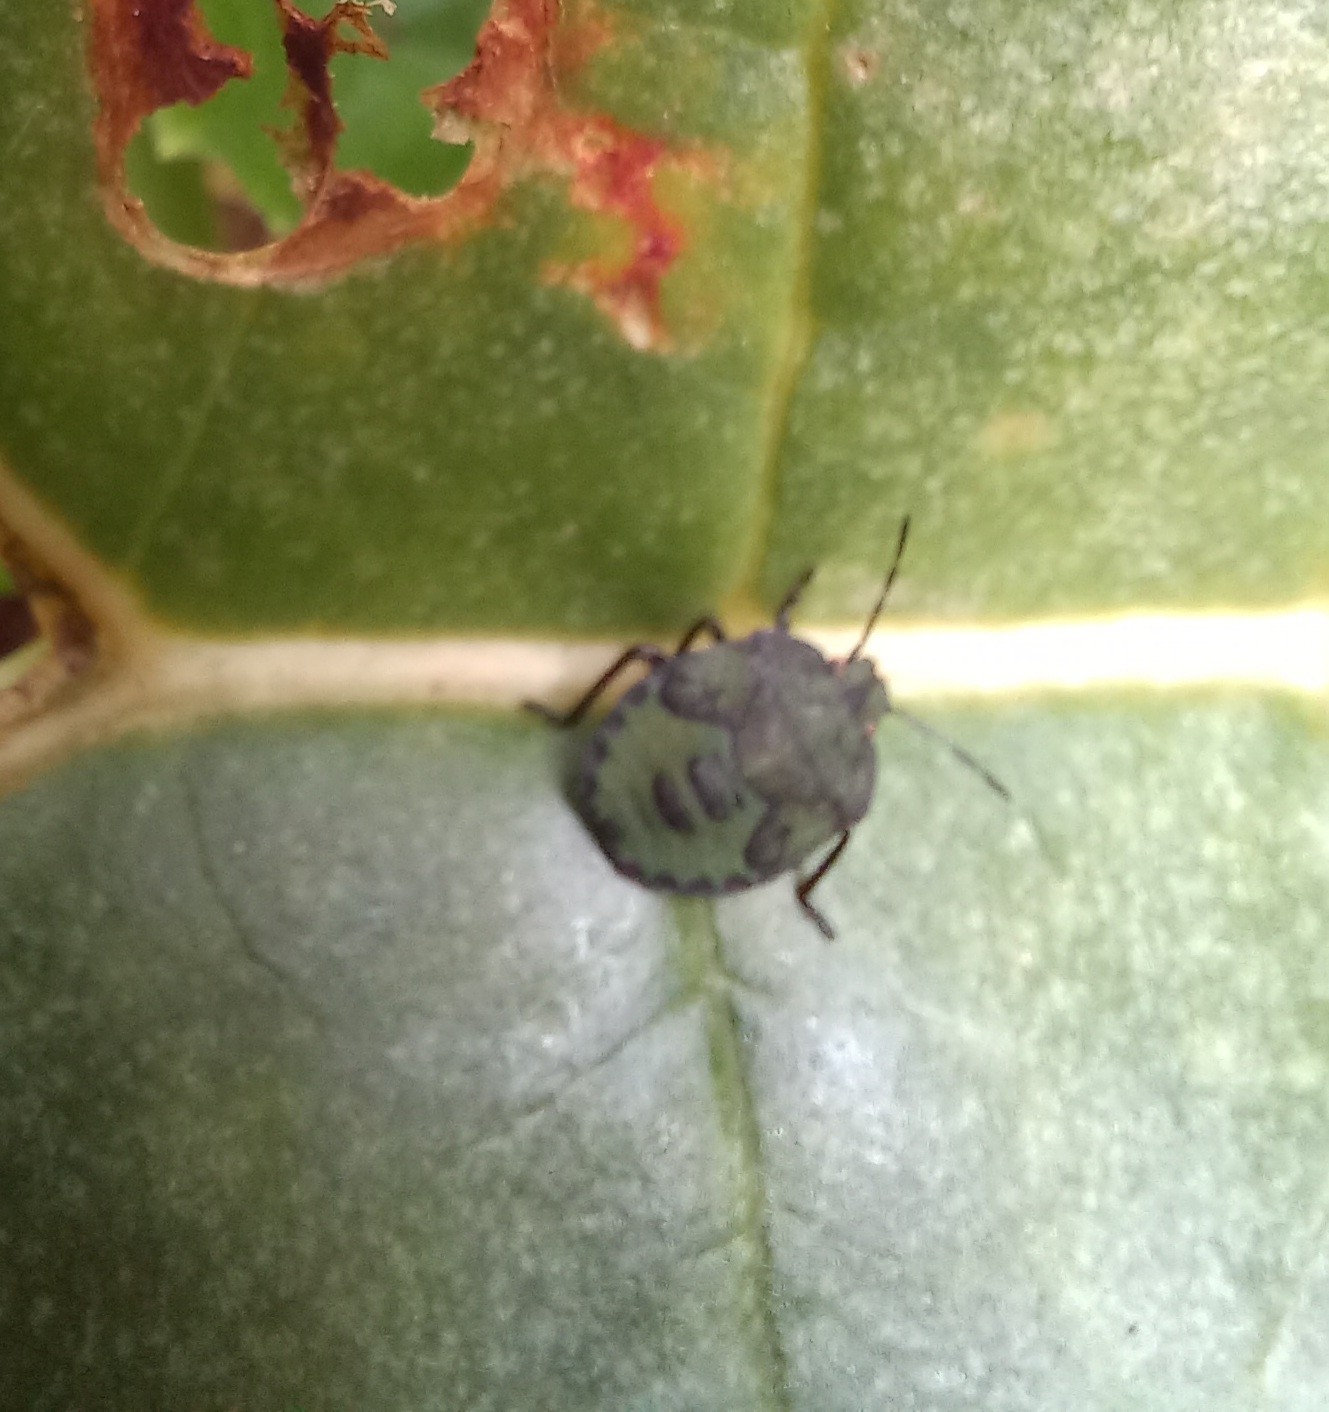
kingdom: Animalia
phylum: Arthropoda
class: Insecta
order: Hemiptera
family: Pentatomidae
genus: Palomena
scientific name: Palomena prasina
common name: Green shieldbug
